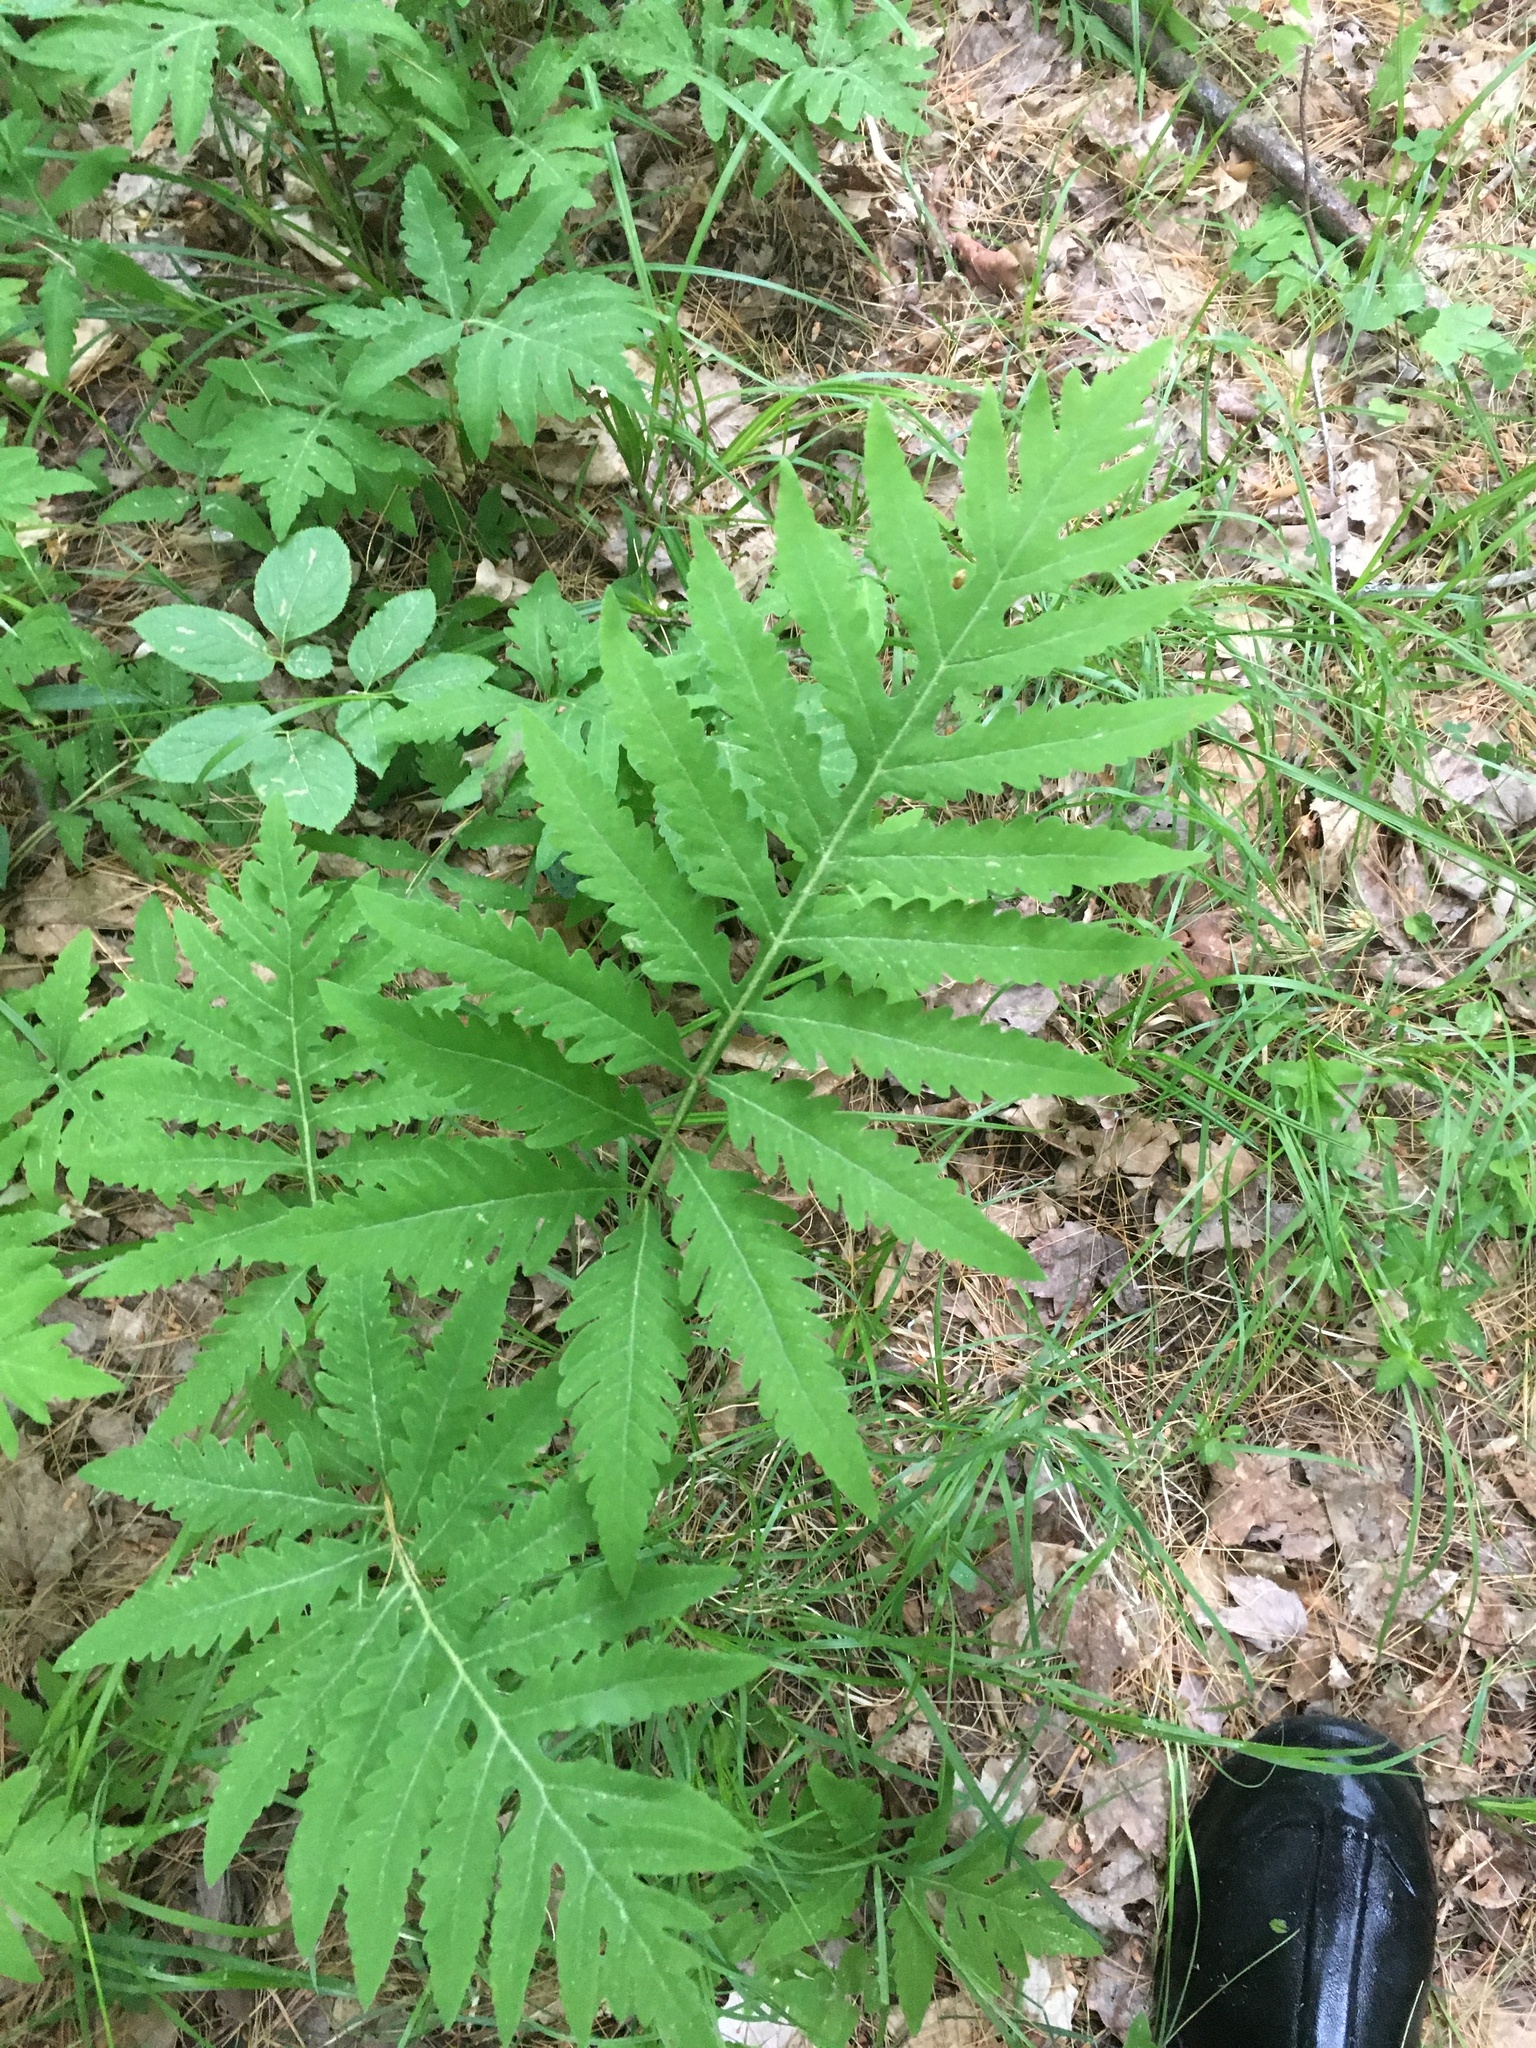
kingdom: Plantae
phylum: Tracheophyta
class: Polypodiopsida
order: Polypodiales
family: Onocleaceae
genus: Onoclea
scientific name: Onoclea sensibilis
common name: Sensitive fern
